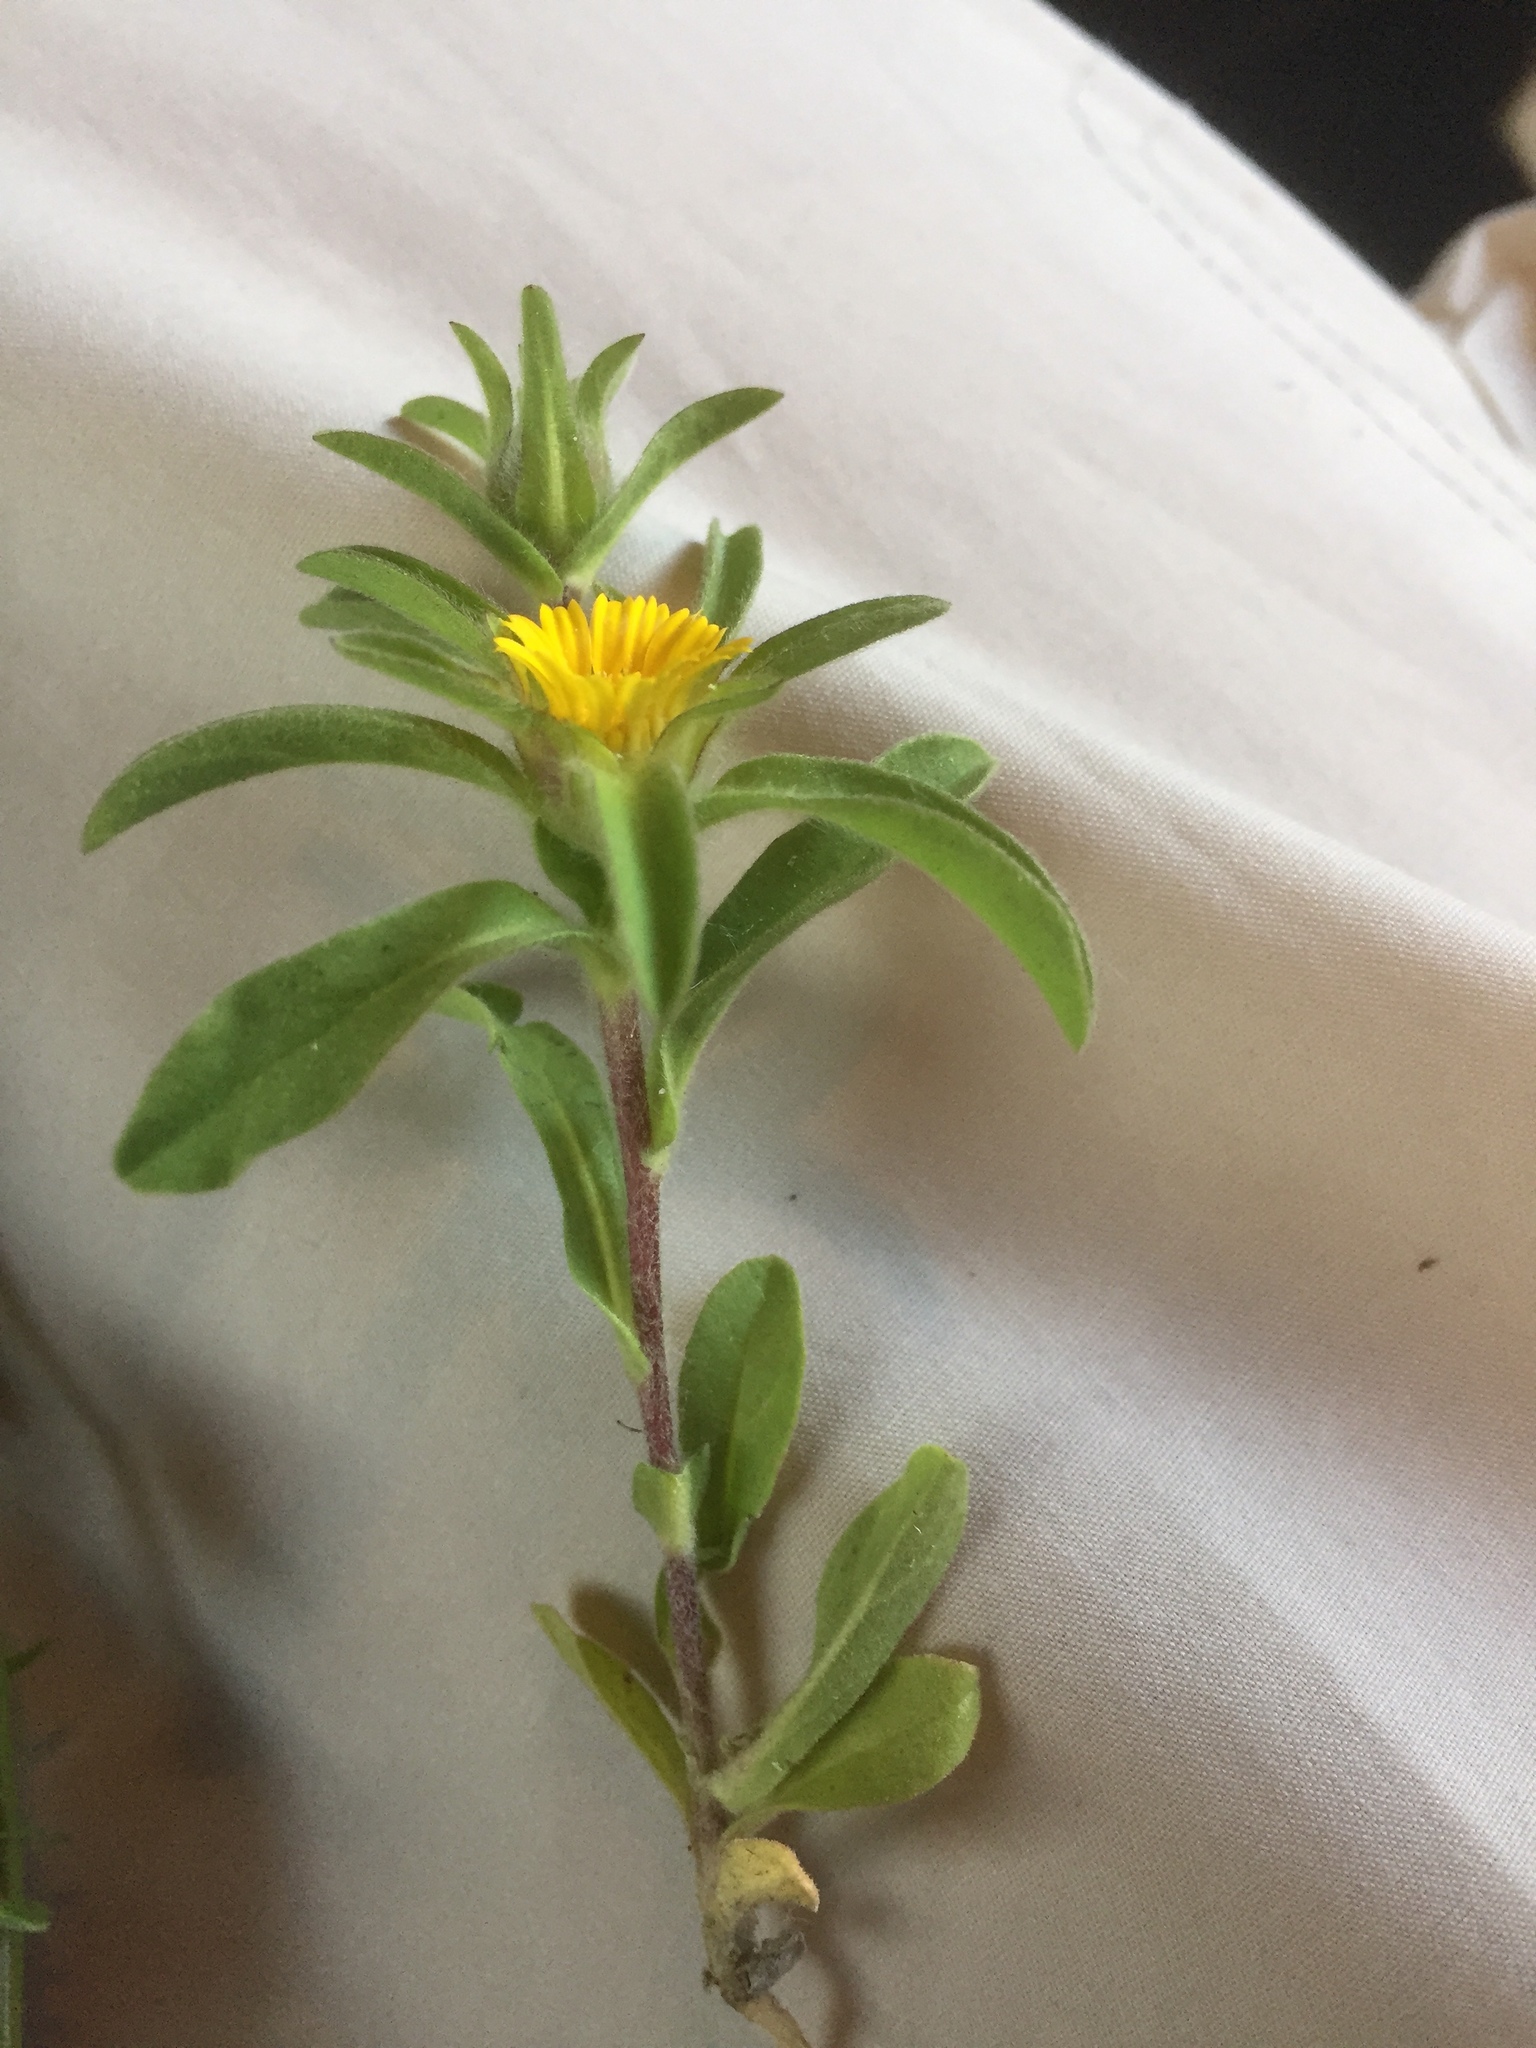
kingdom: Plantae
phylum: Tracheophyta
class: Magnoliopsida
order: Asterales
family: Asteraceae
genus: Pallenis
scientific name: Pallenis spinosa
